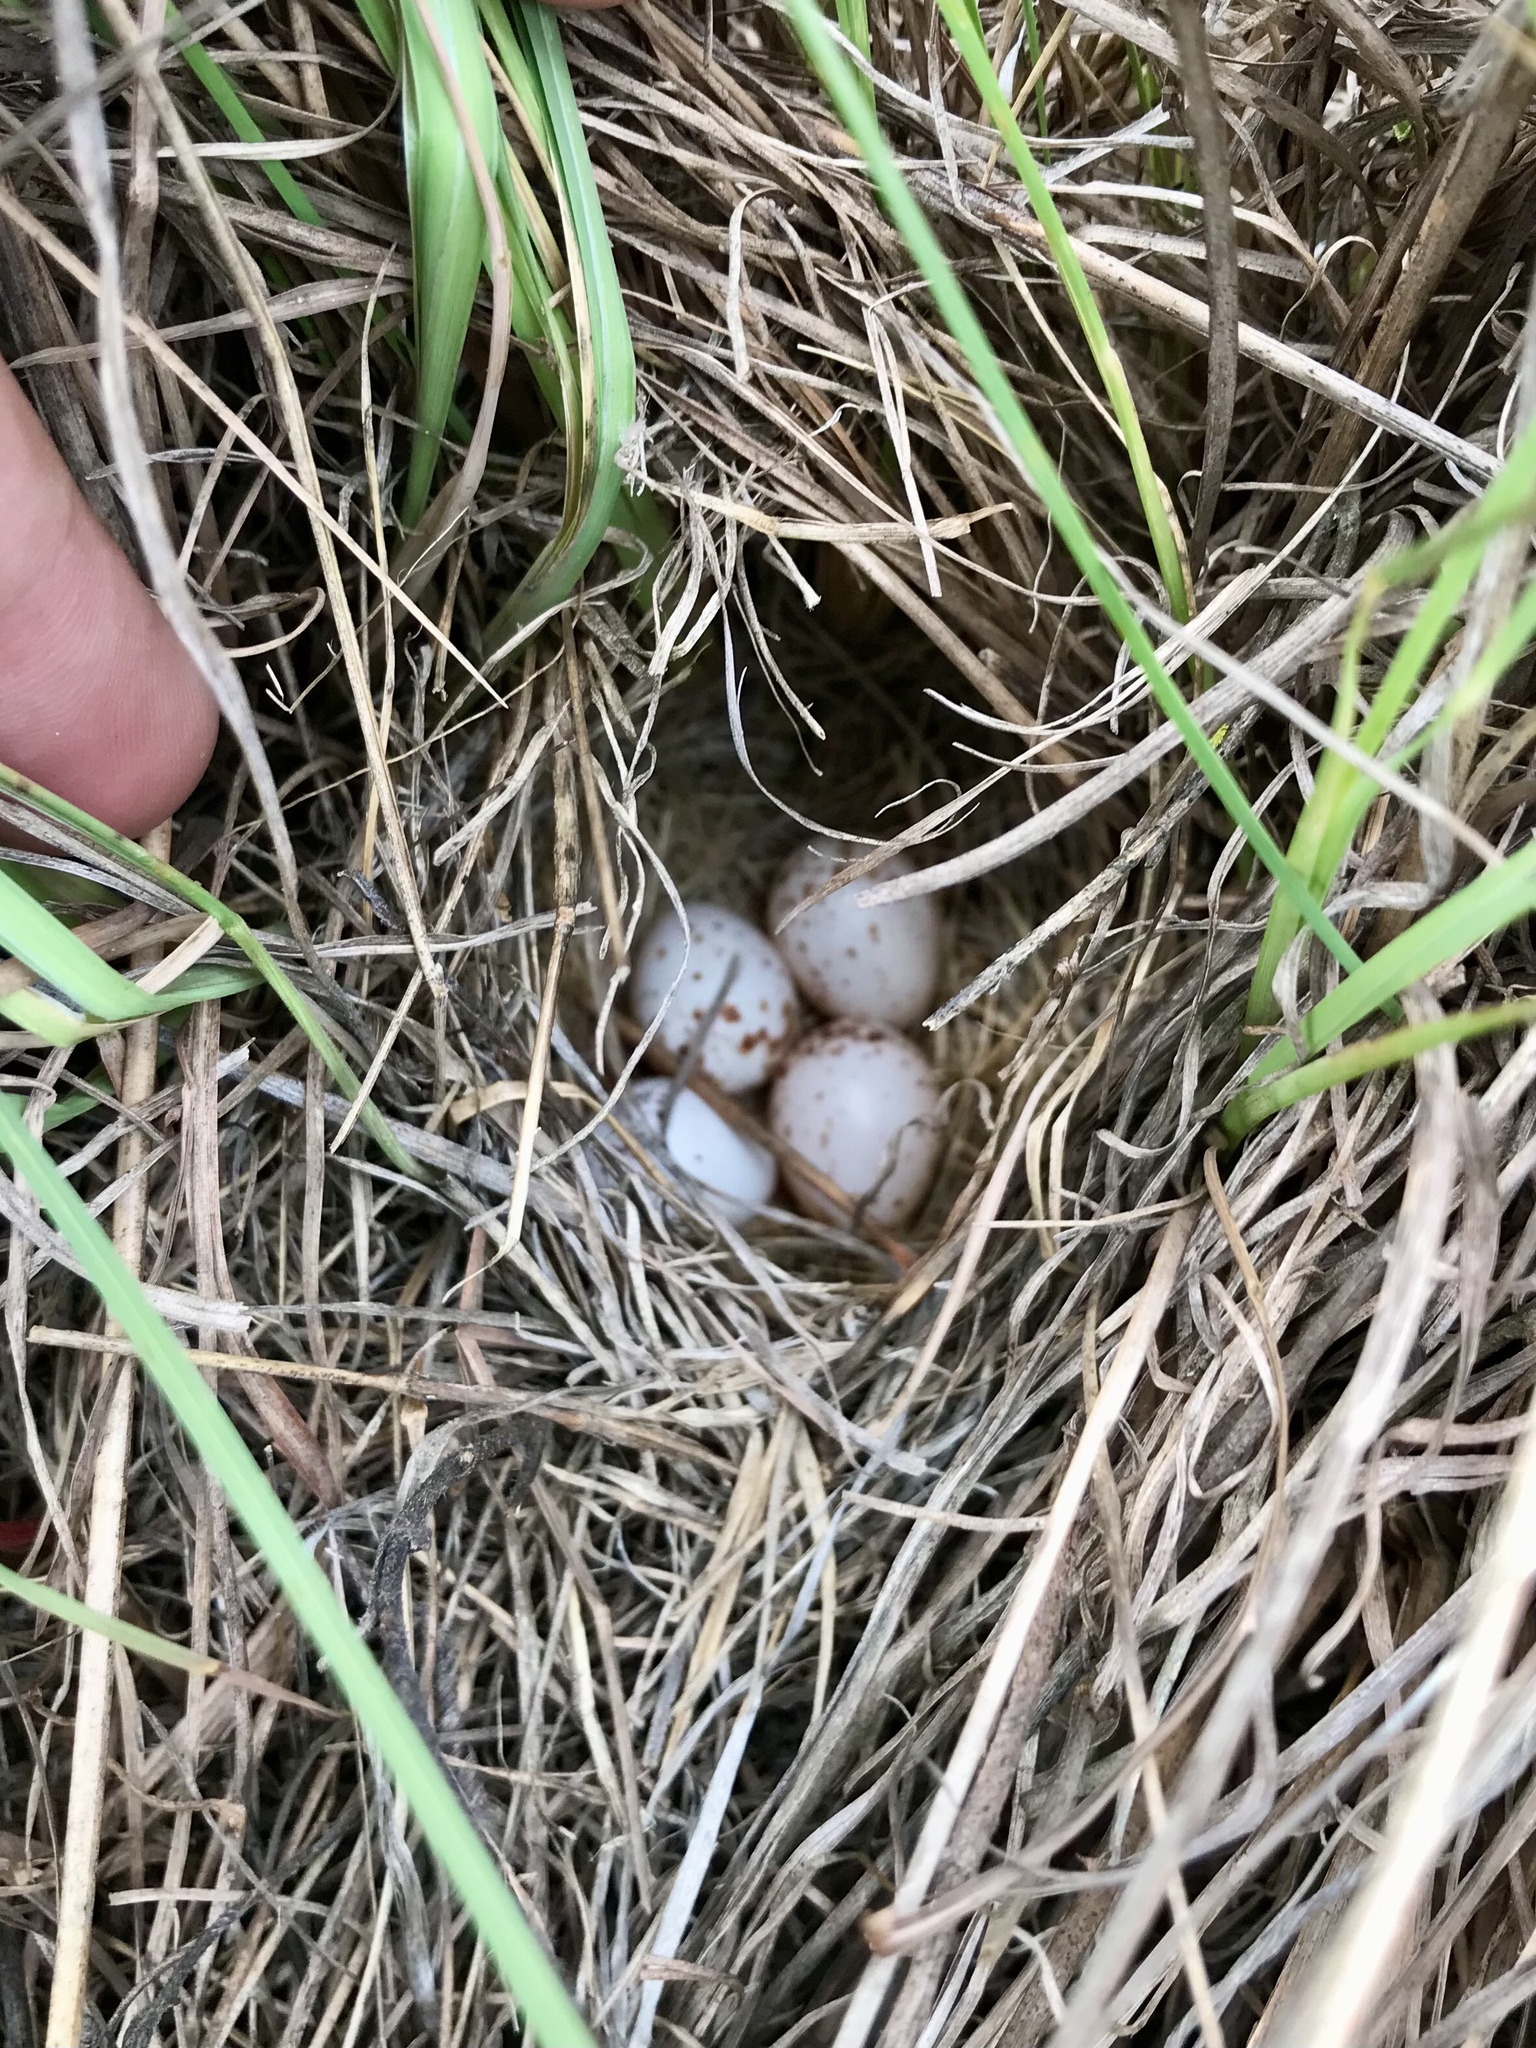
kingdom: Animalia
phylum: Chordata
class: Aves
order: Passeriformes
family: Passerellidae
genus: Ammodramus
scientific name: Ammodramus savannarum
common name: Grasshopper sparrow
